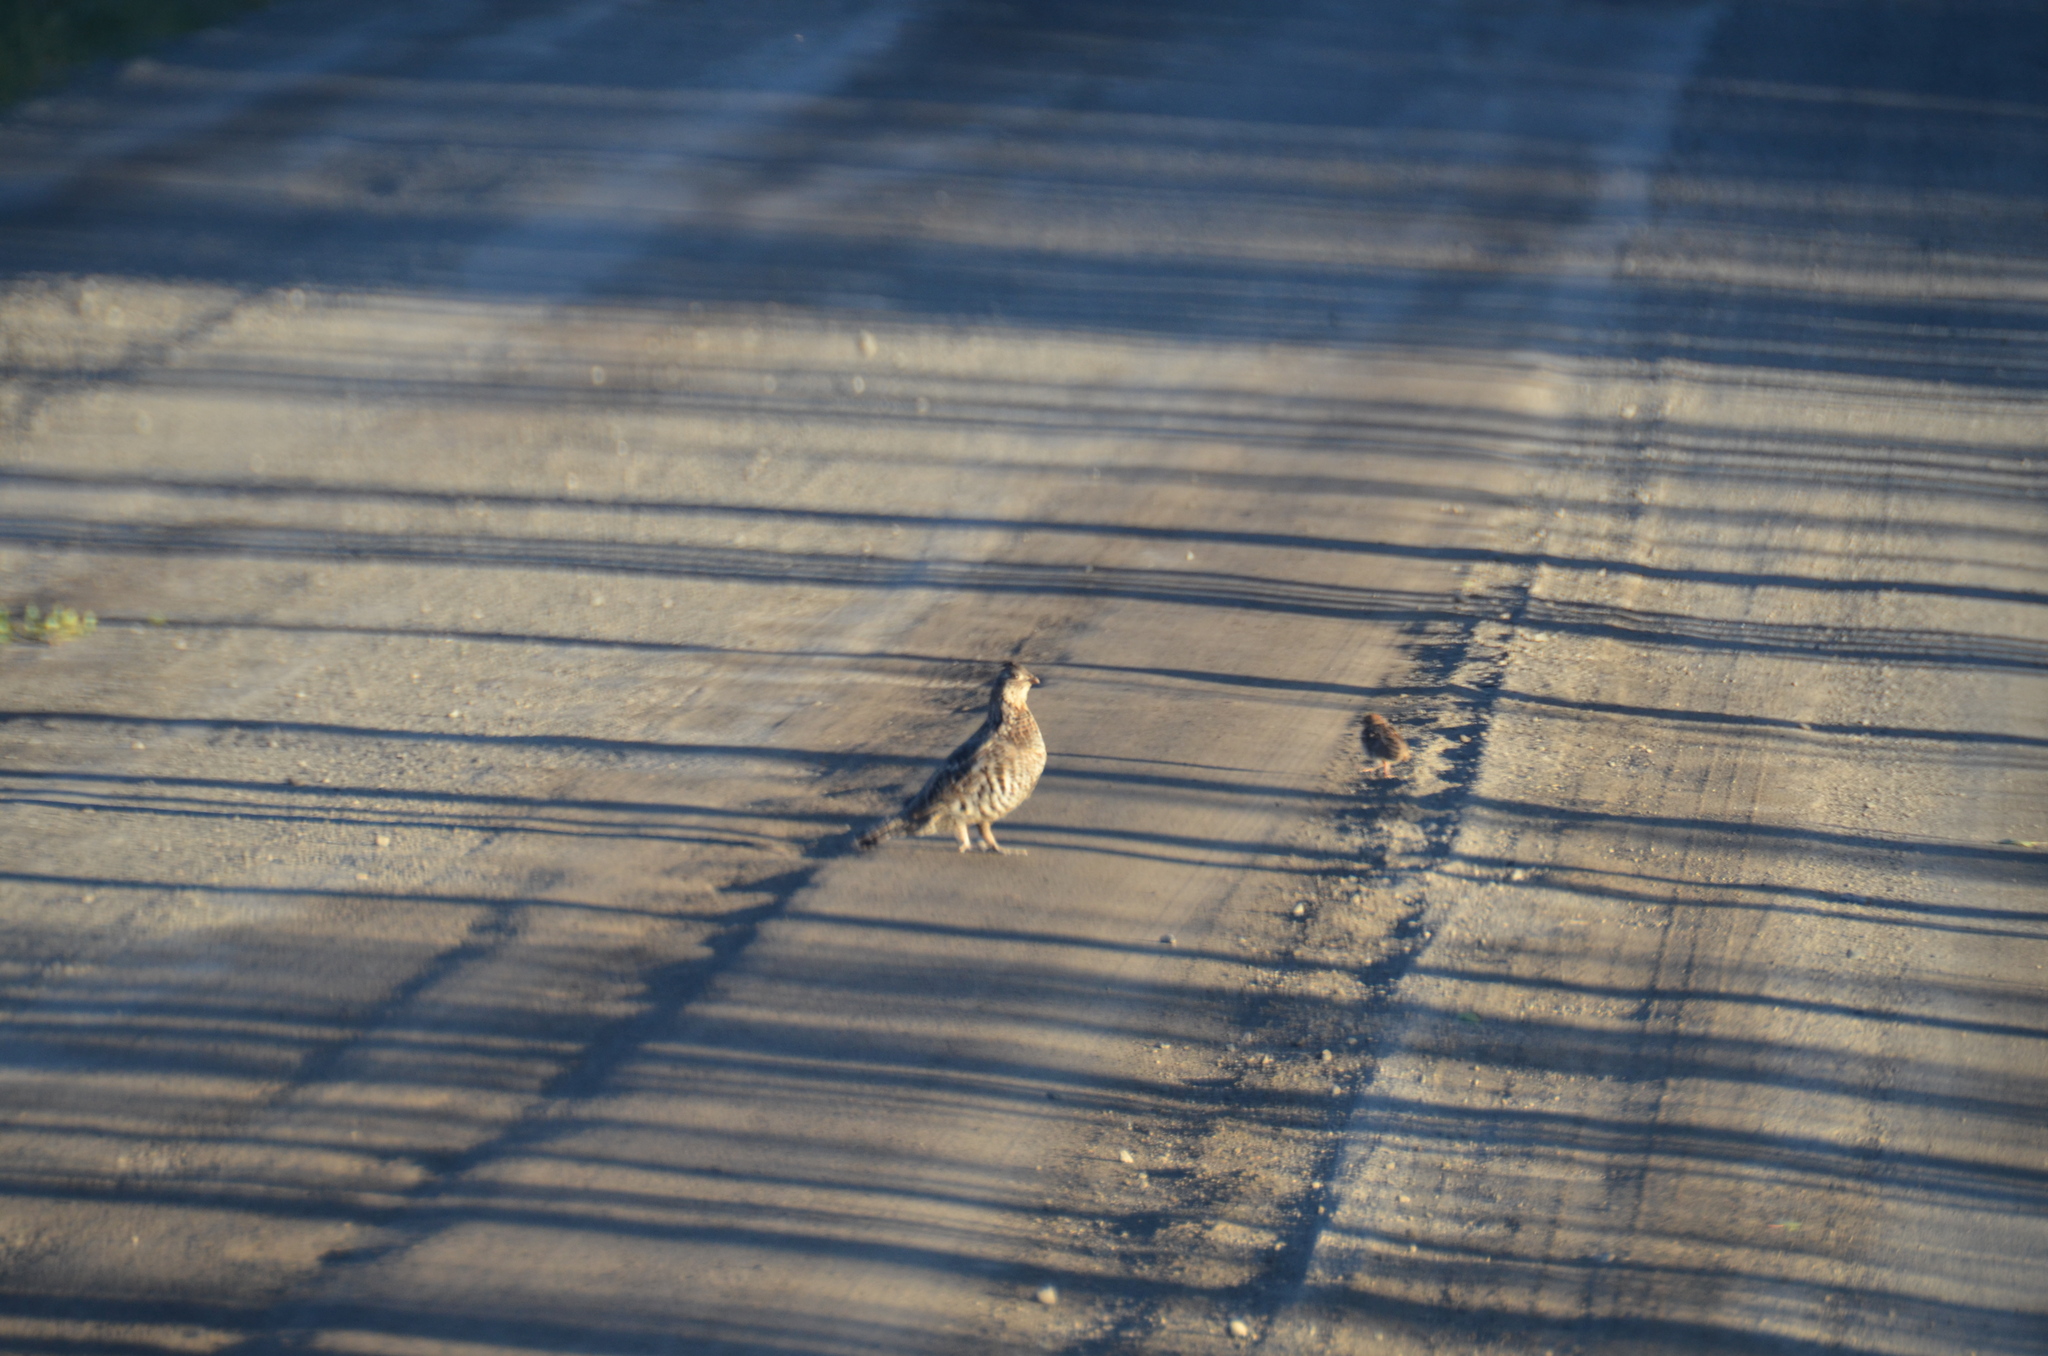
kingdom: Animalia
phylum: Chordata
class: Aves
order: Galliformes
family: Phasianidae
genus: Bonasa
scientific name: Bonasa umbellus
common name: Ruffed grouse
